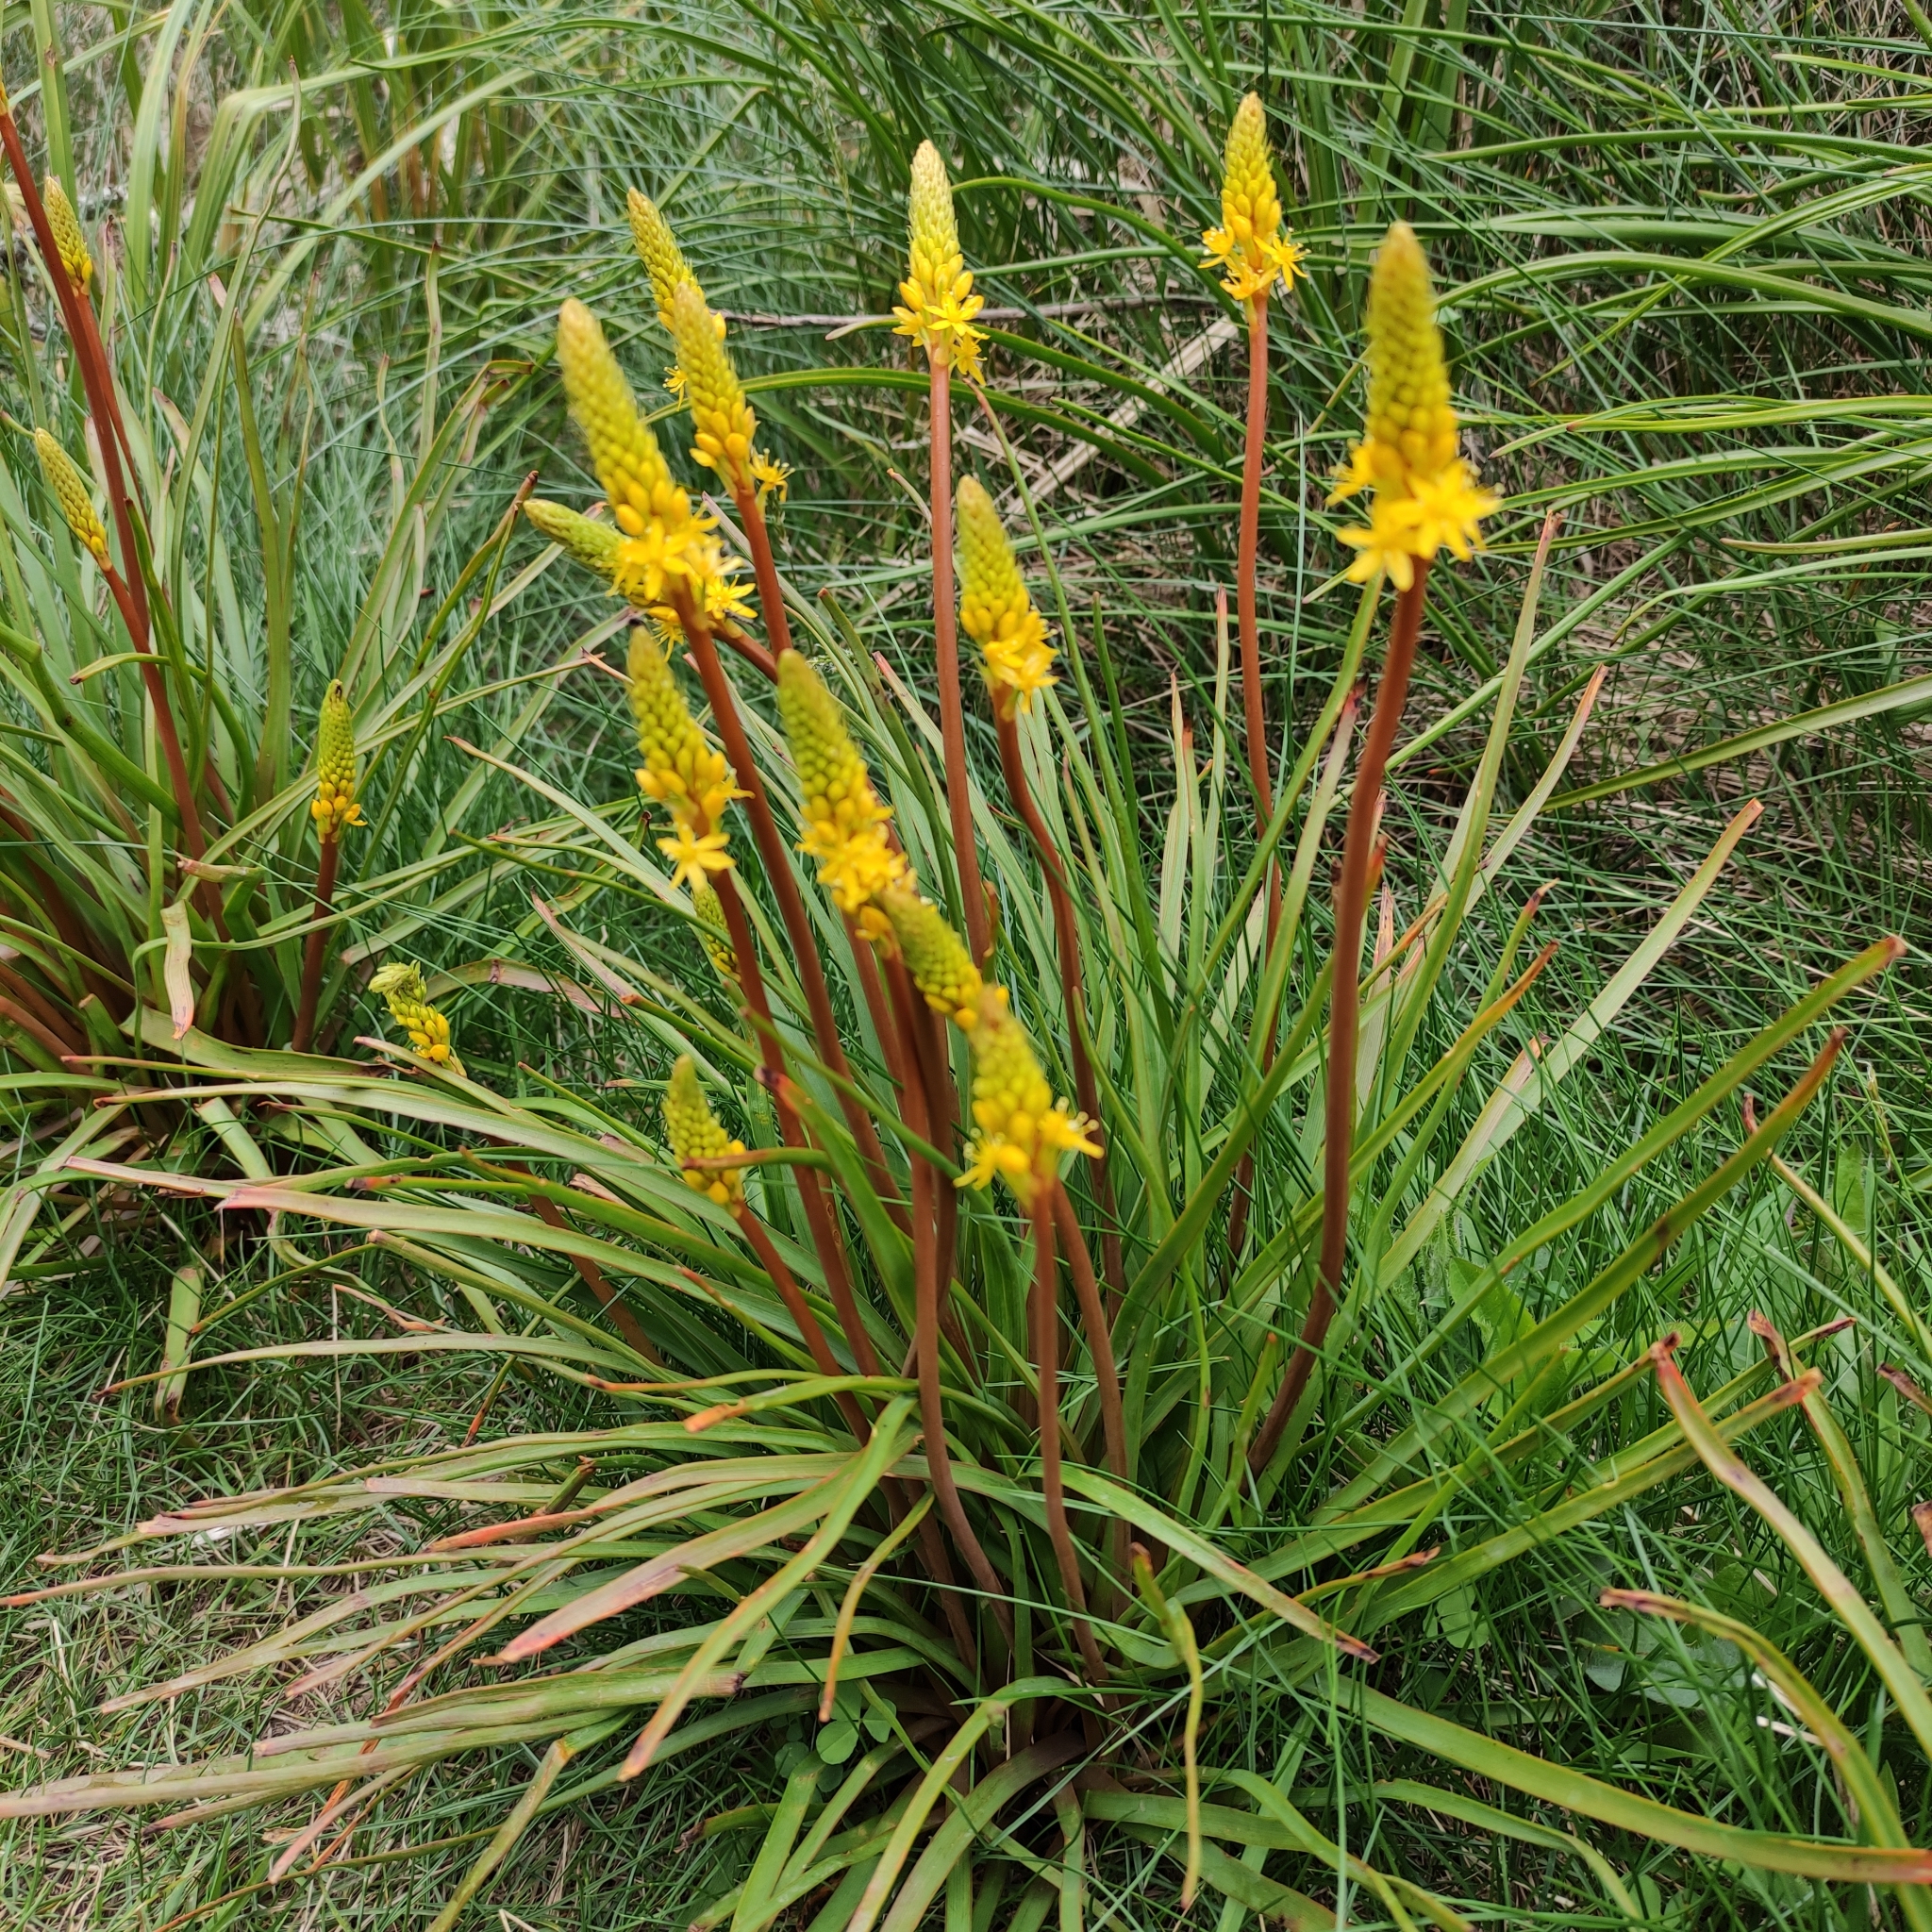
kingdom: Plantae
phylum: Tracheophyta
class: Liliopsida
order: Asparagales
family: Asphodelaceae
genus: Bulbinella
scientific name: Bulbinella angustifolia
